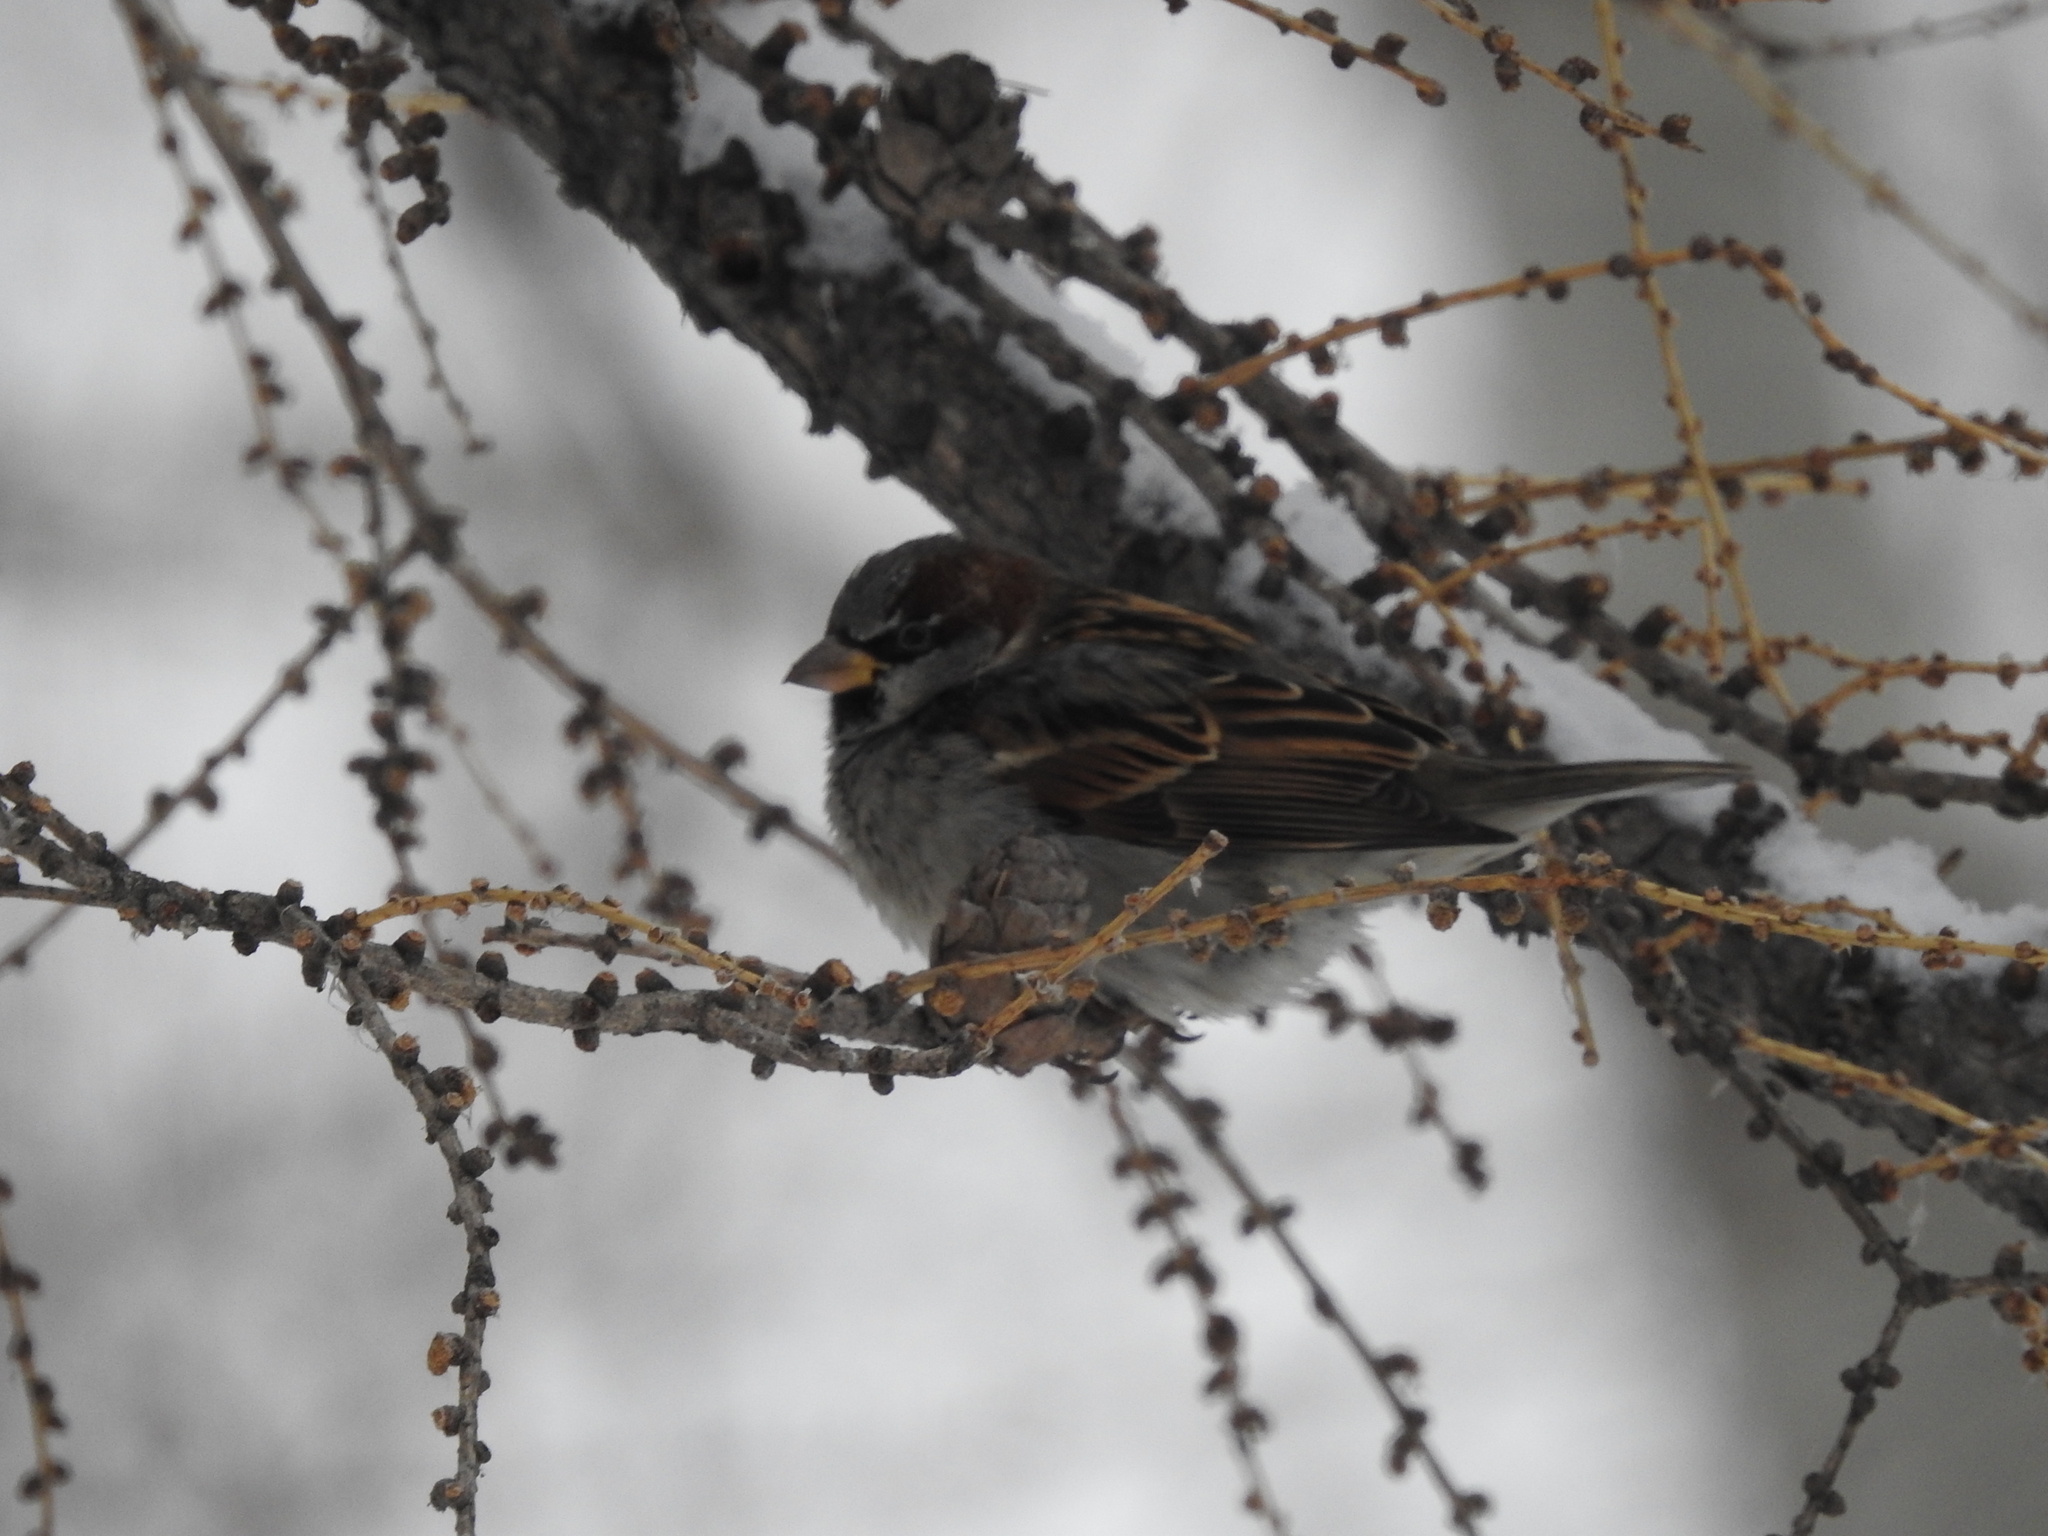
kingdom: Animalia
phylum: Chordata
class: Aves
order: Passeriformes
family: Passeridae
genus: Passer
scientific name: Passer domesticus
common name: House sparrow
